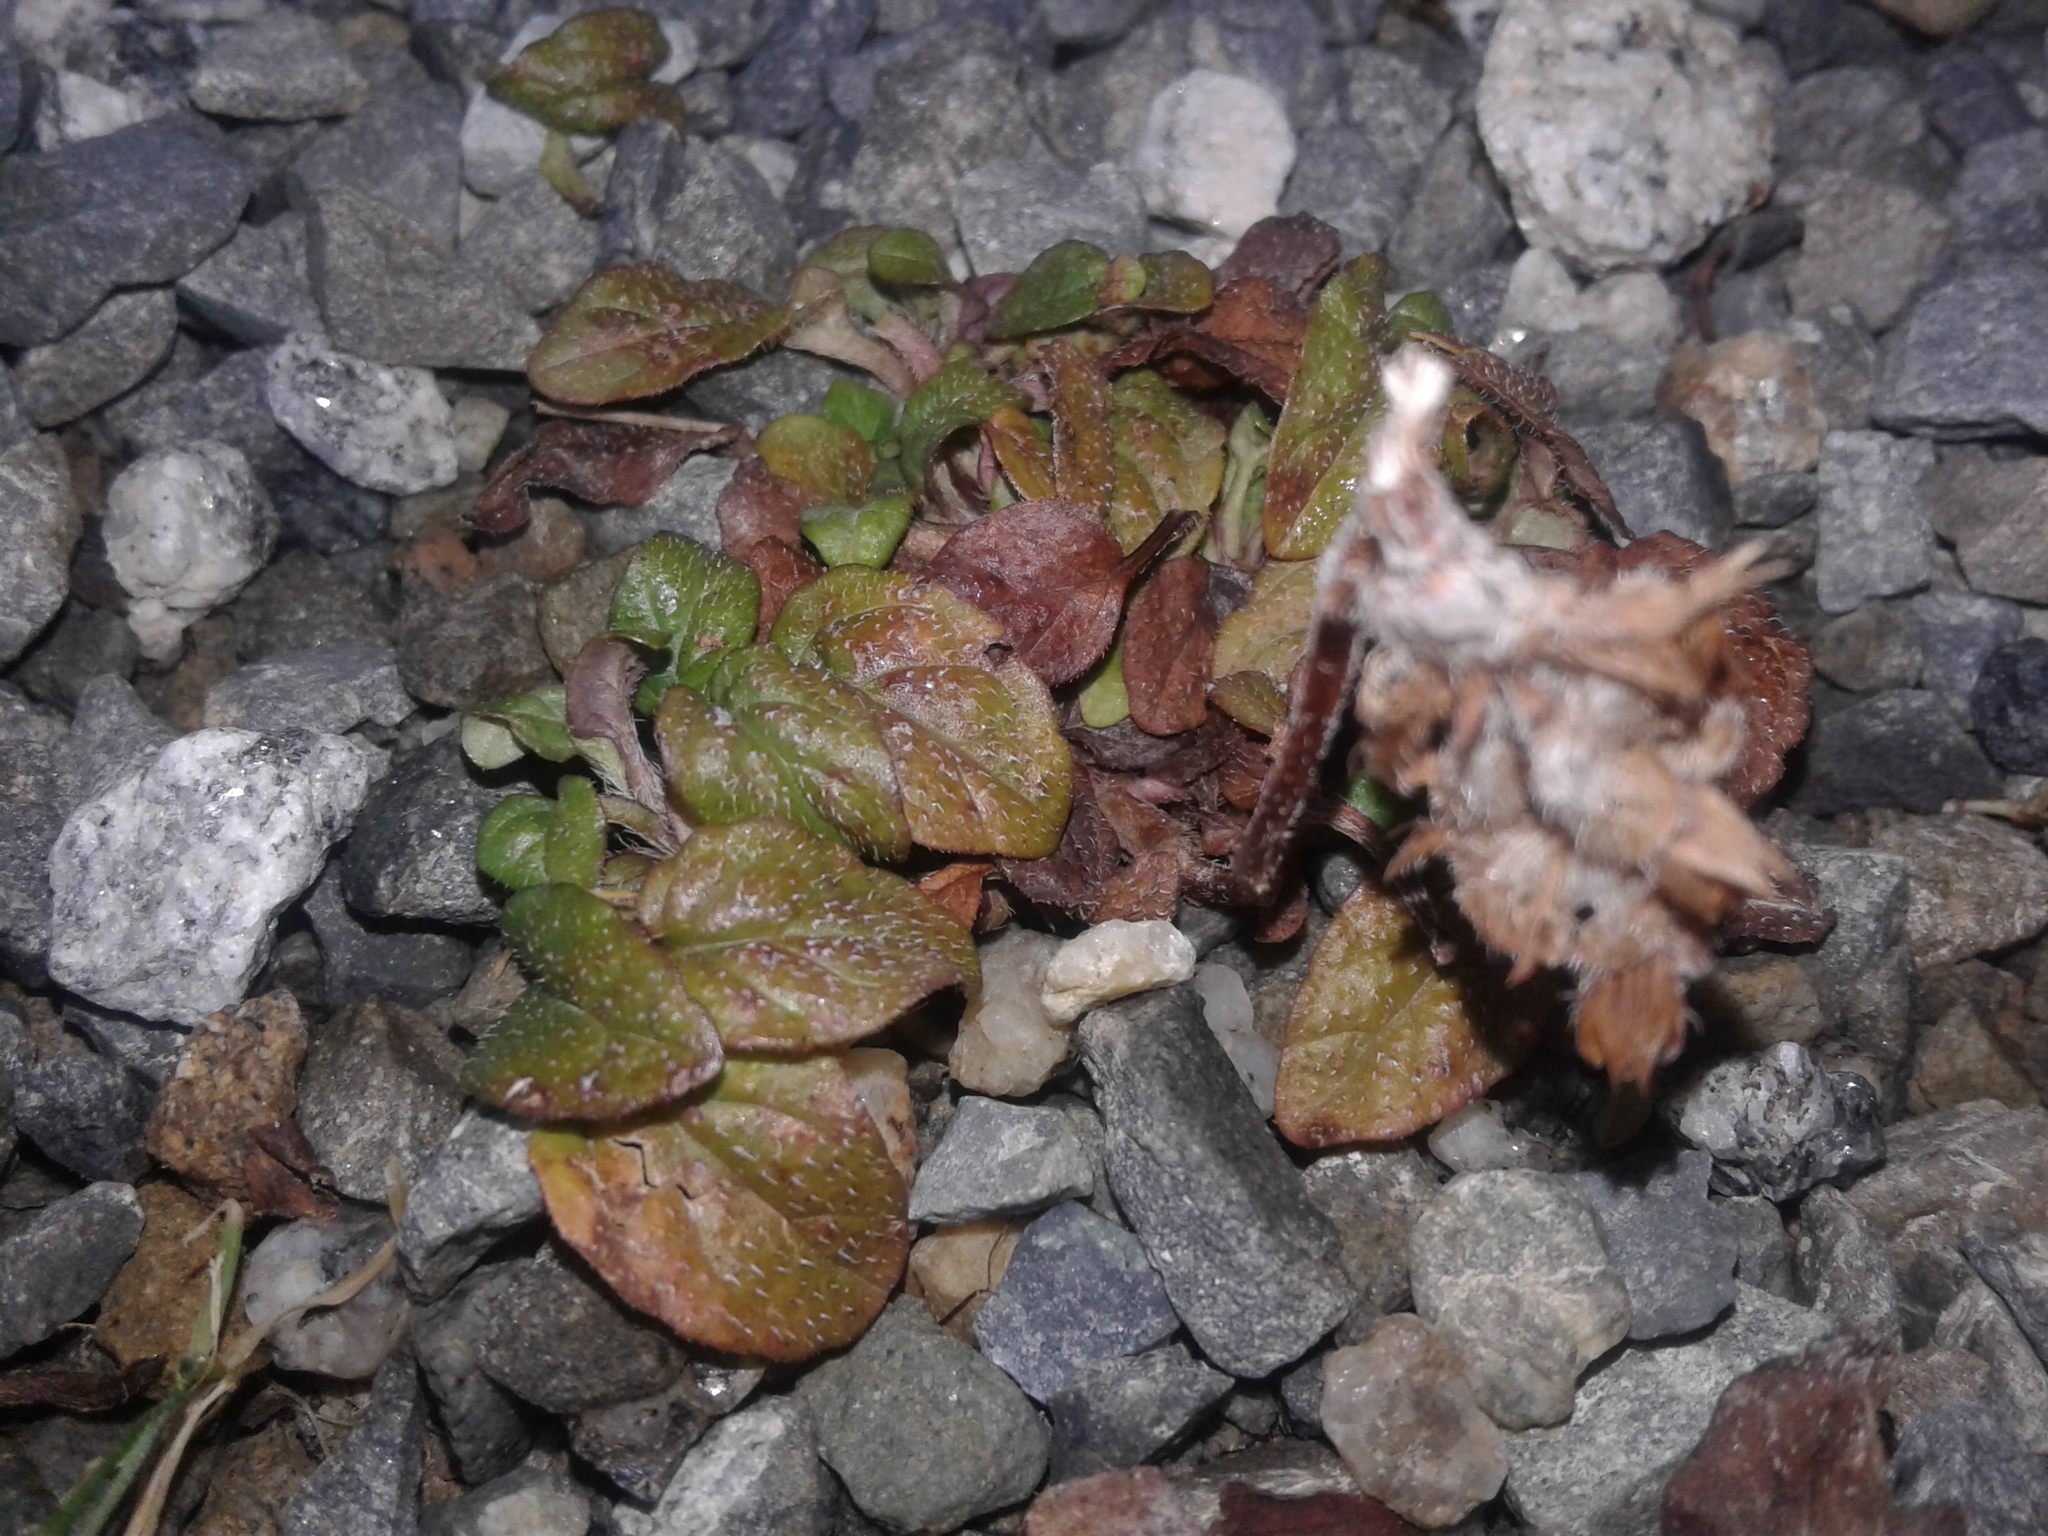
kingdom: Plantae
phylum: Tracheophyta
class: Magnoliopsida
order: Lamiales
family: Lamiaceae
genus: Prunella
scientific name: Prunella vulgaris
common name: Heal-all
